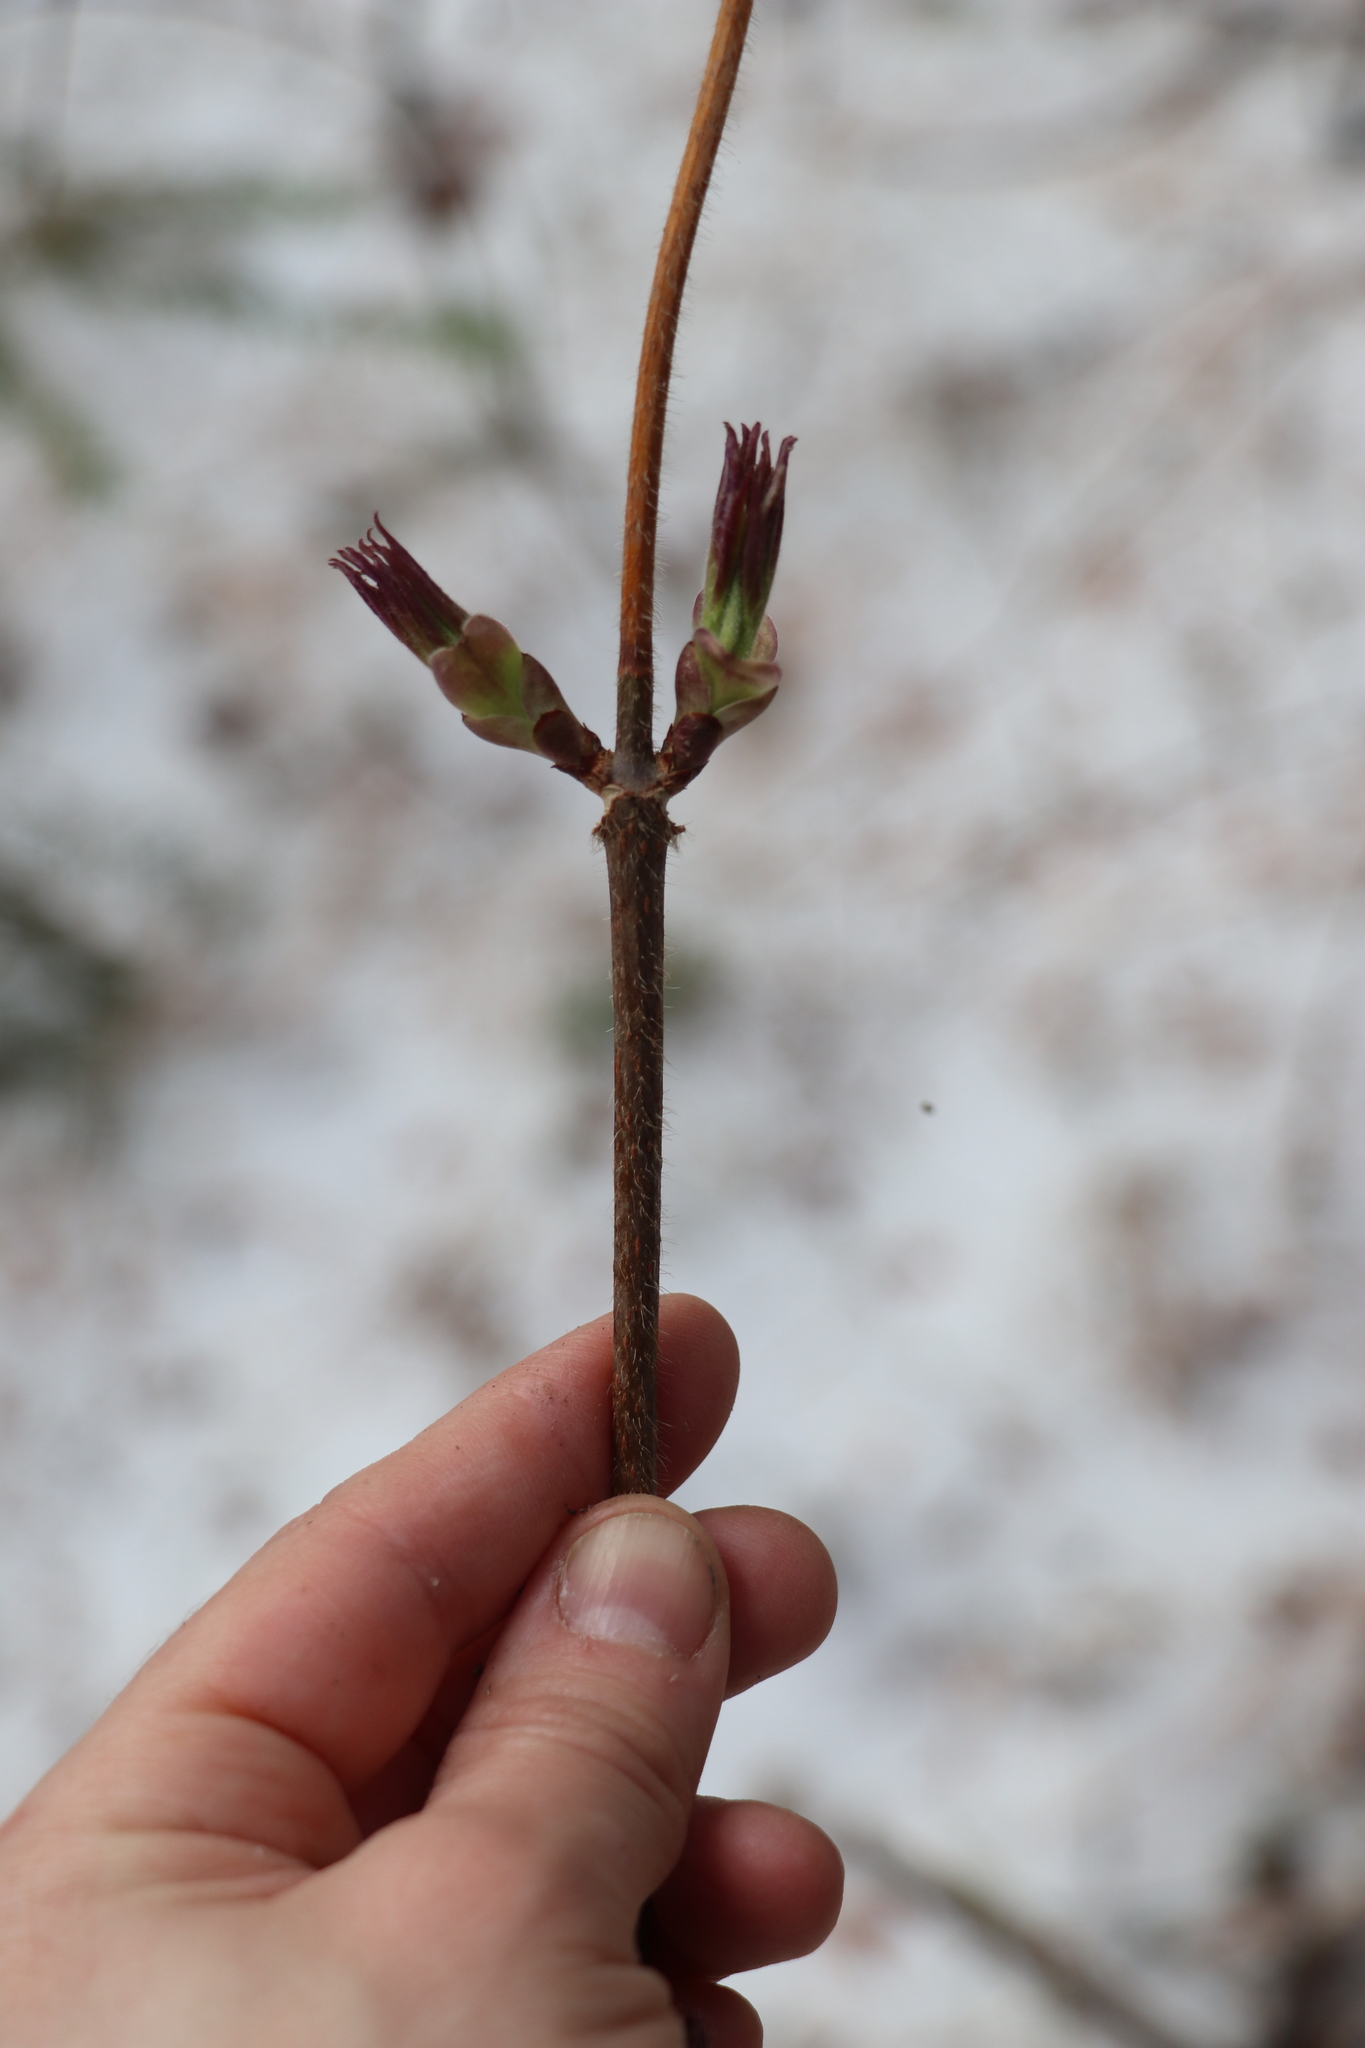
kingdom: Plantae
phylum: Tracheophyta
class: Magnoliopsida
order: Dipsacales
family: Viburnaceae
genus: Sambucus
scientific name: Sambucus sibirica
